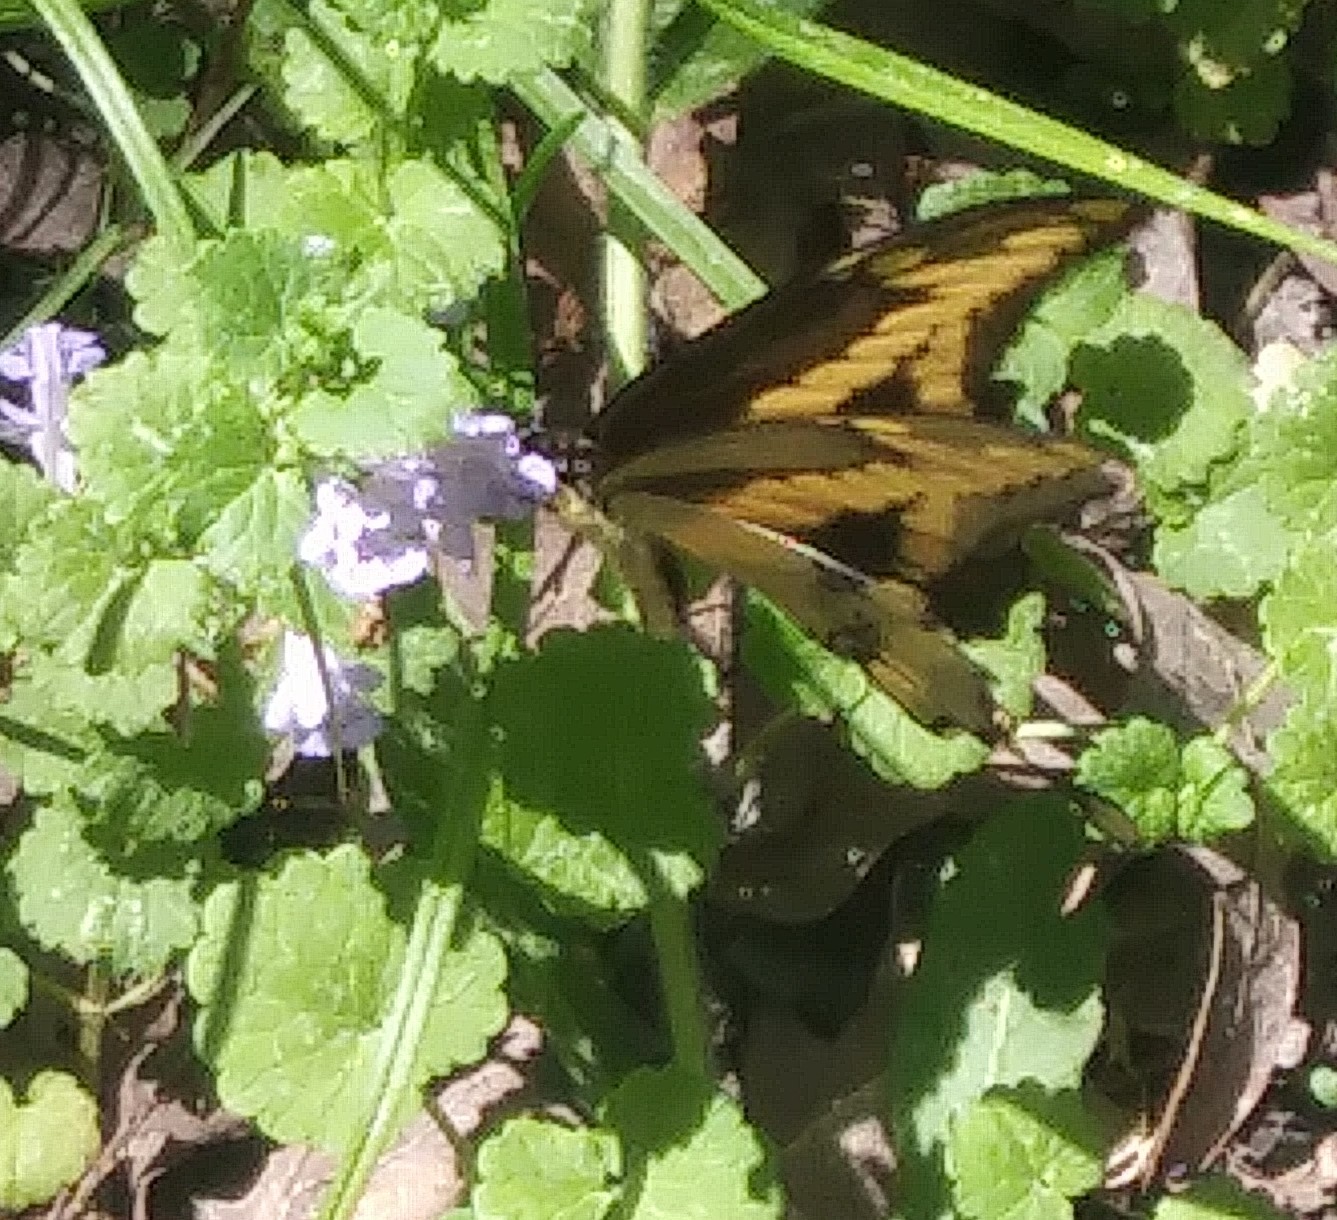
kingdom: Animalia
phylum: Arthropoda
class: Insecta
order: Lepidoptera
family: Papilionidae
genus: Papilio
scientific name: Papilio cresphontes
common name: Giant swallowtail
